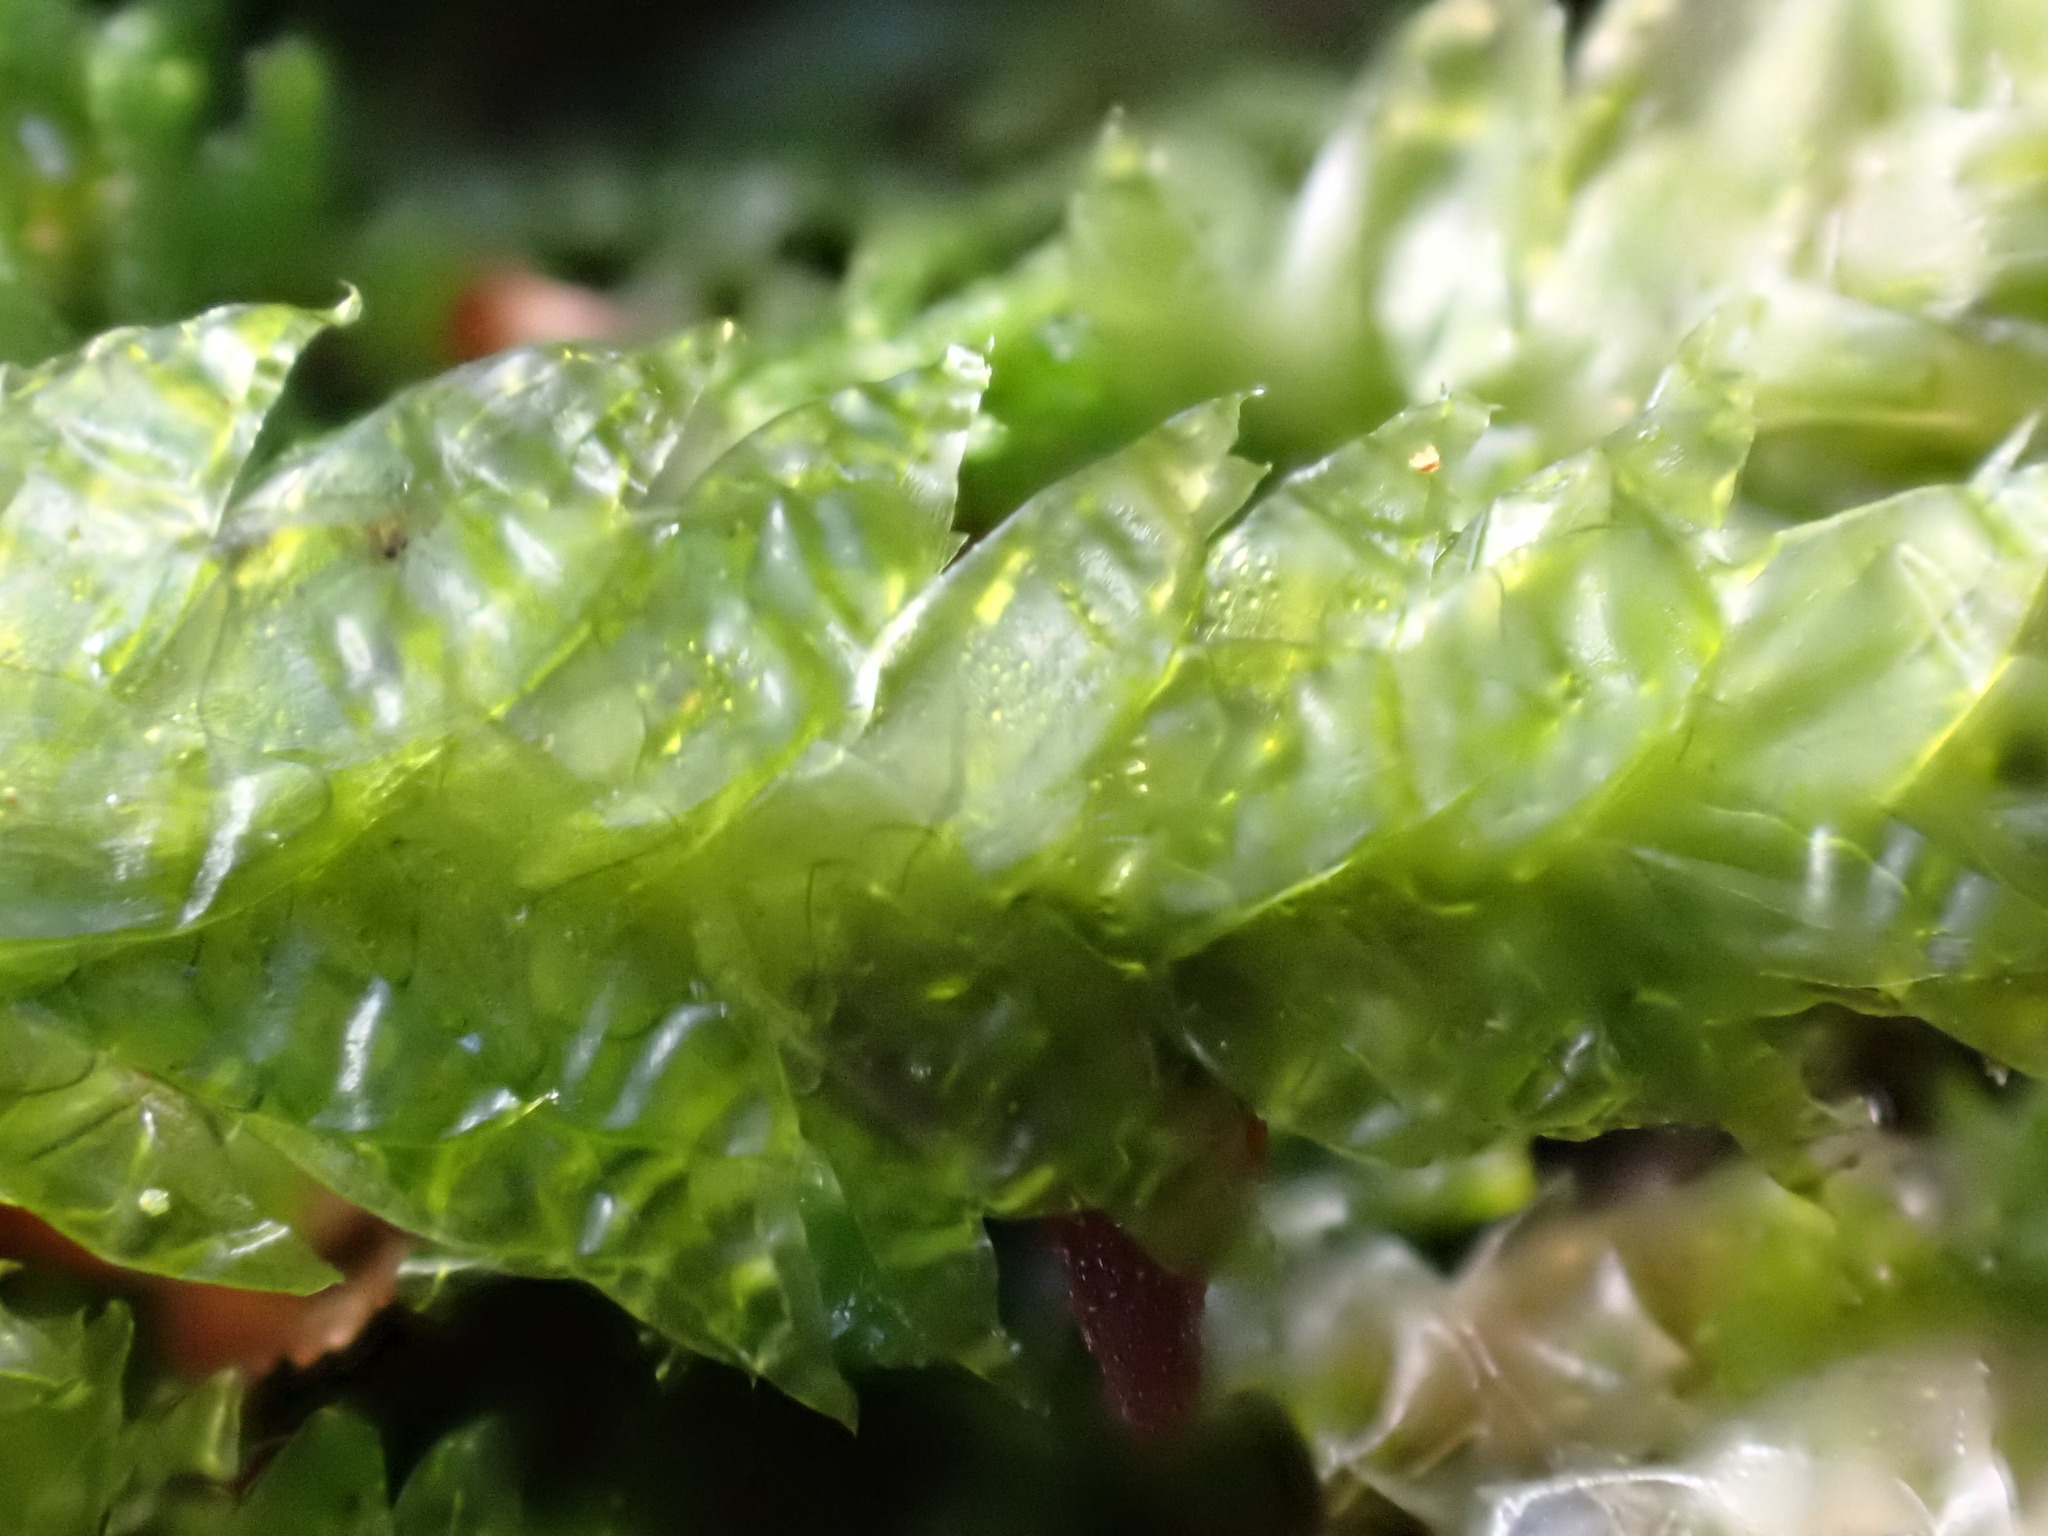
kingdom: Plantae
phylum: Bryophyta
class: Bryopsida
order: Hypnales
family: Plagiotheciaceae
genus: Plagiothecium
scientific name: Plagiothecium undulatum
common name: Waved silk-moss
